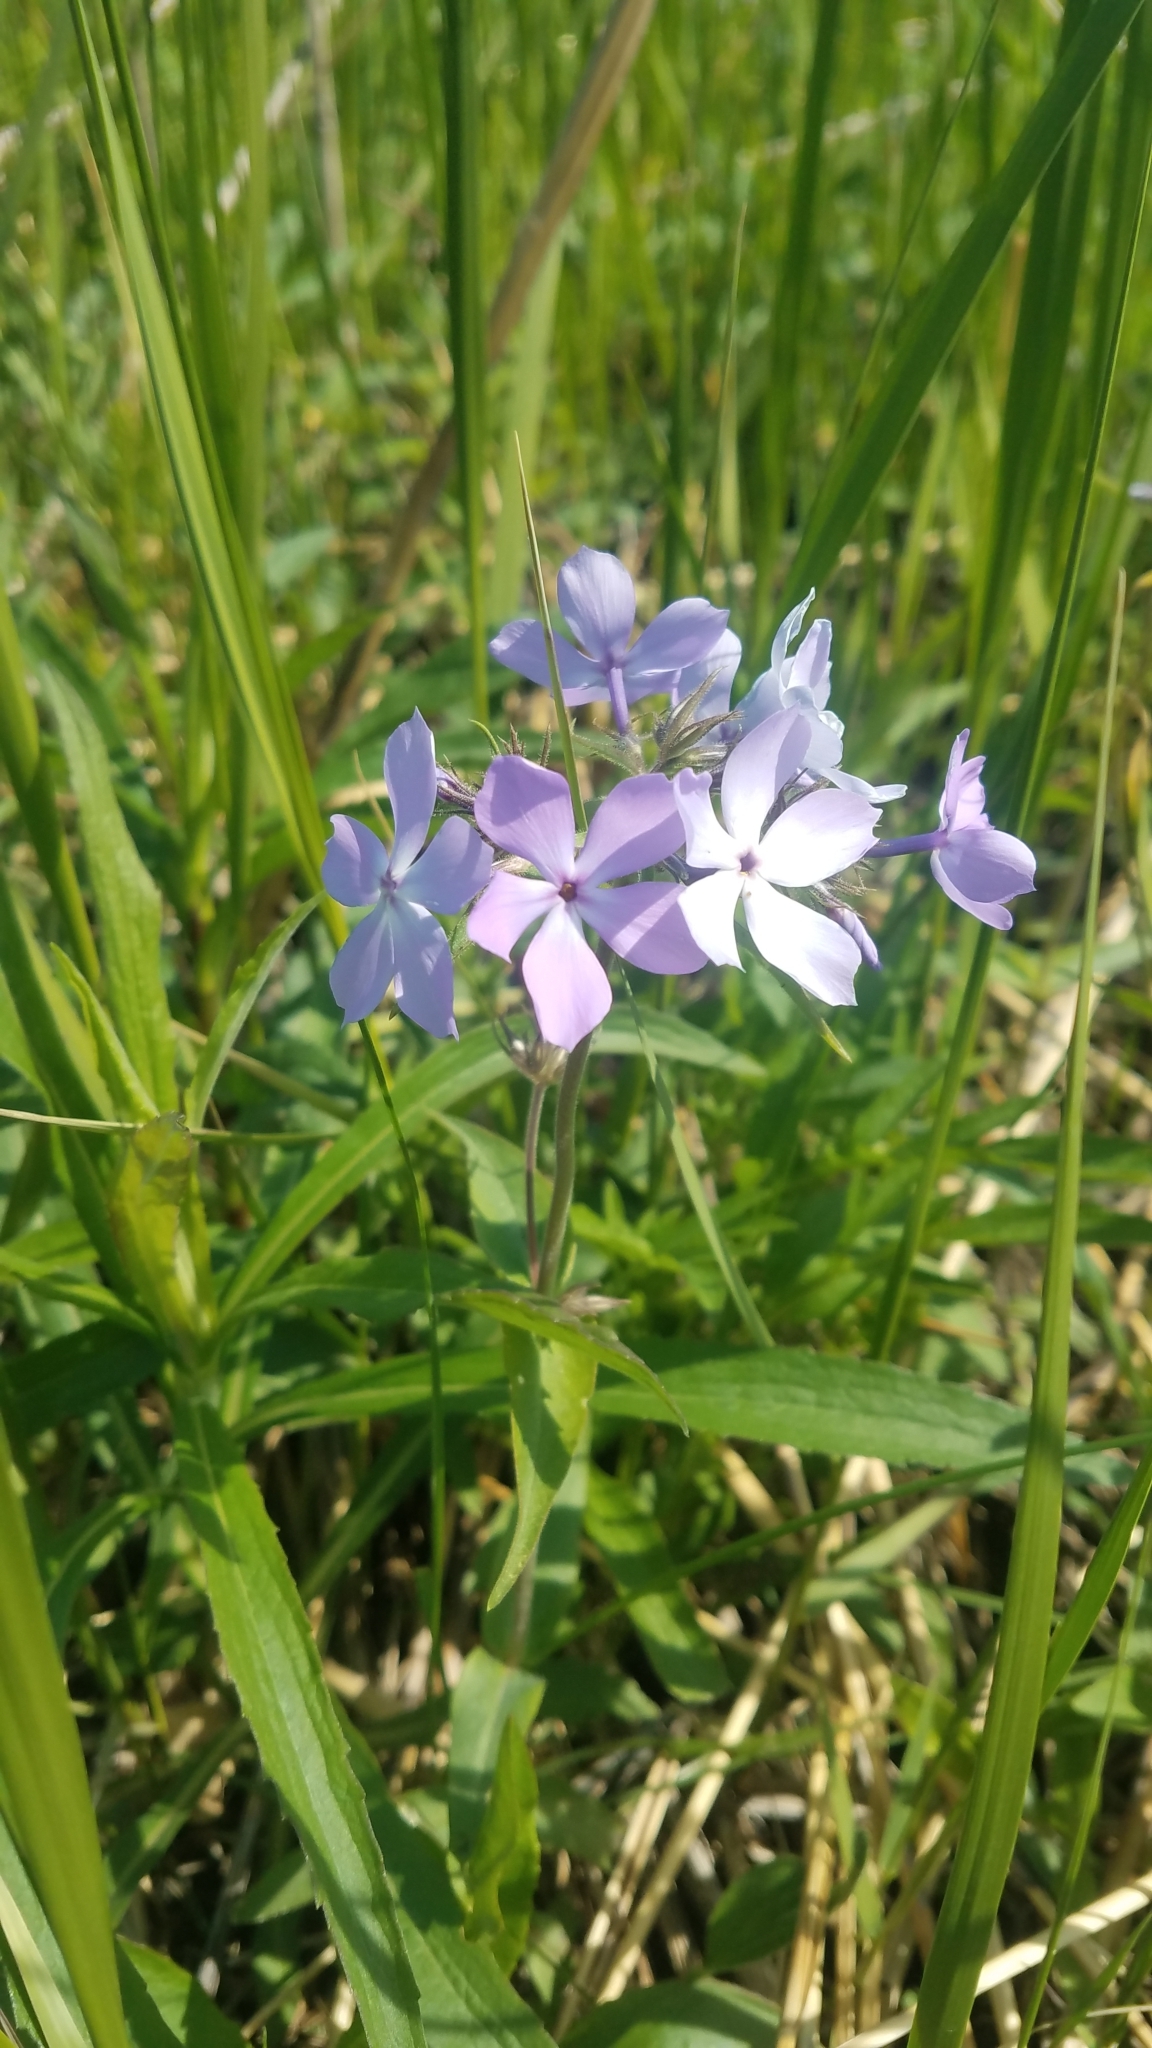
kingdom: Plantae
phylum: Tracheophyta
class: Magnoliopsida
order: Ericales
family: Polemoniaceae
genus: Phlox
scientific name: Phlox divaricata
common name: Blue phlox
